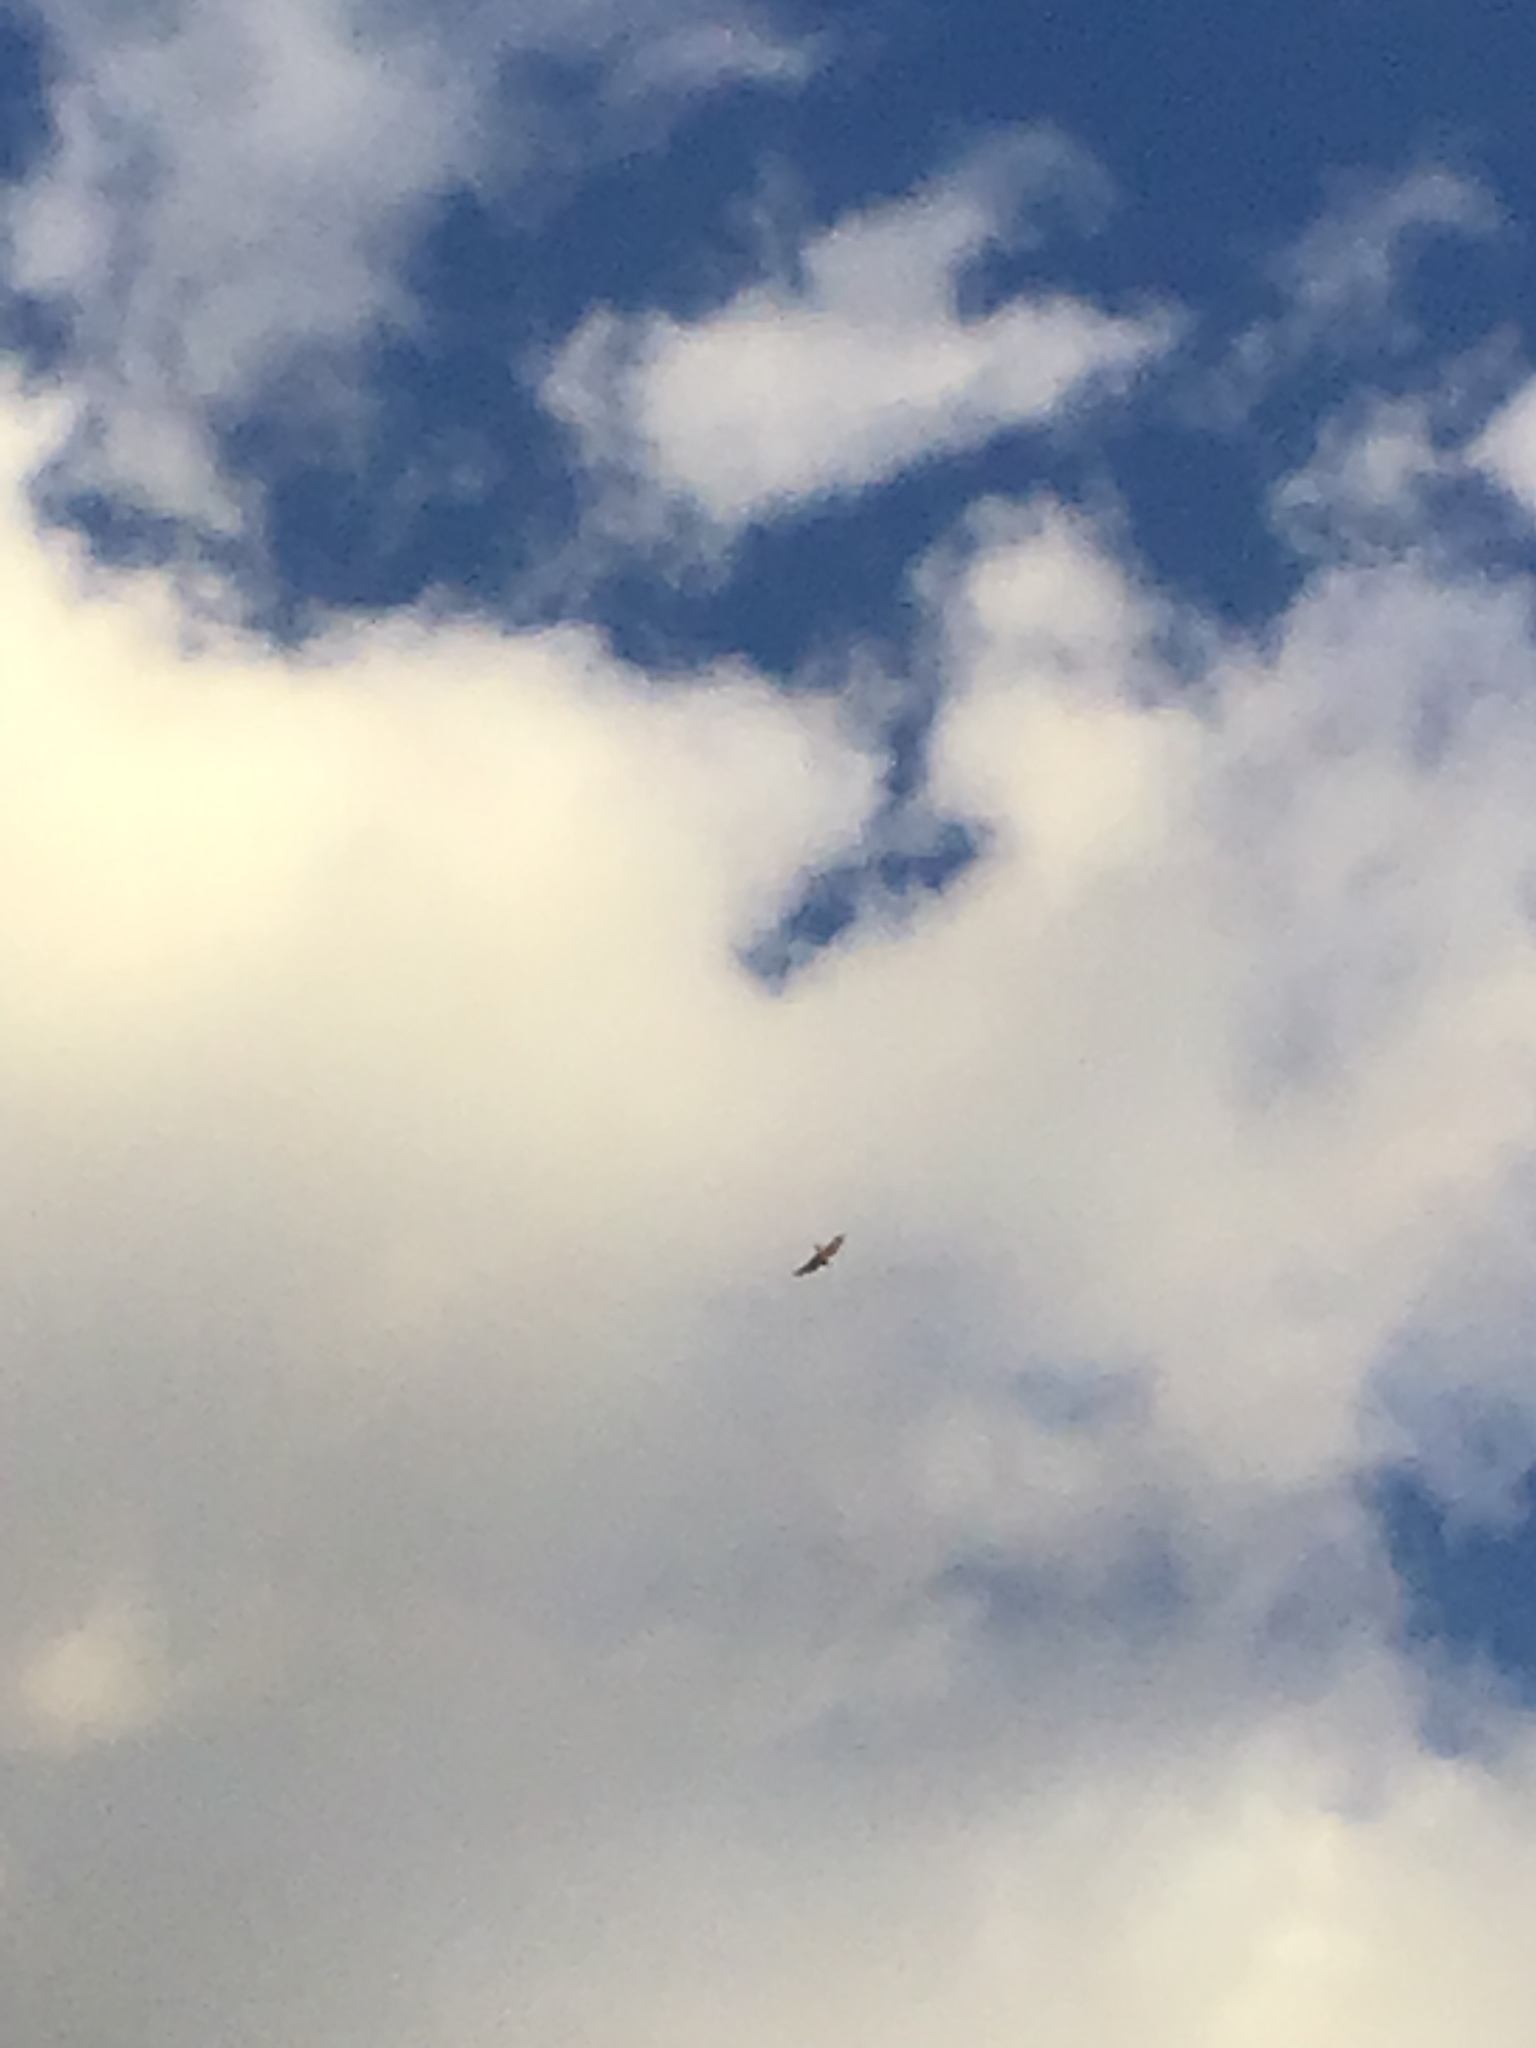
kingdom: Animalia
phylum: Chordata
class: Aves
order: Caprimulgiformes
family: Caprimulgidae
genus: Chordeiles
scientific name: Chordeiles minor
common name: Common nighthawk
